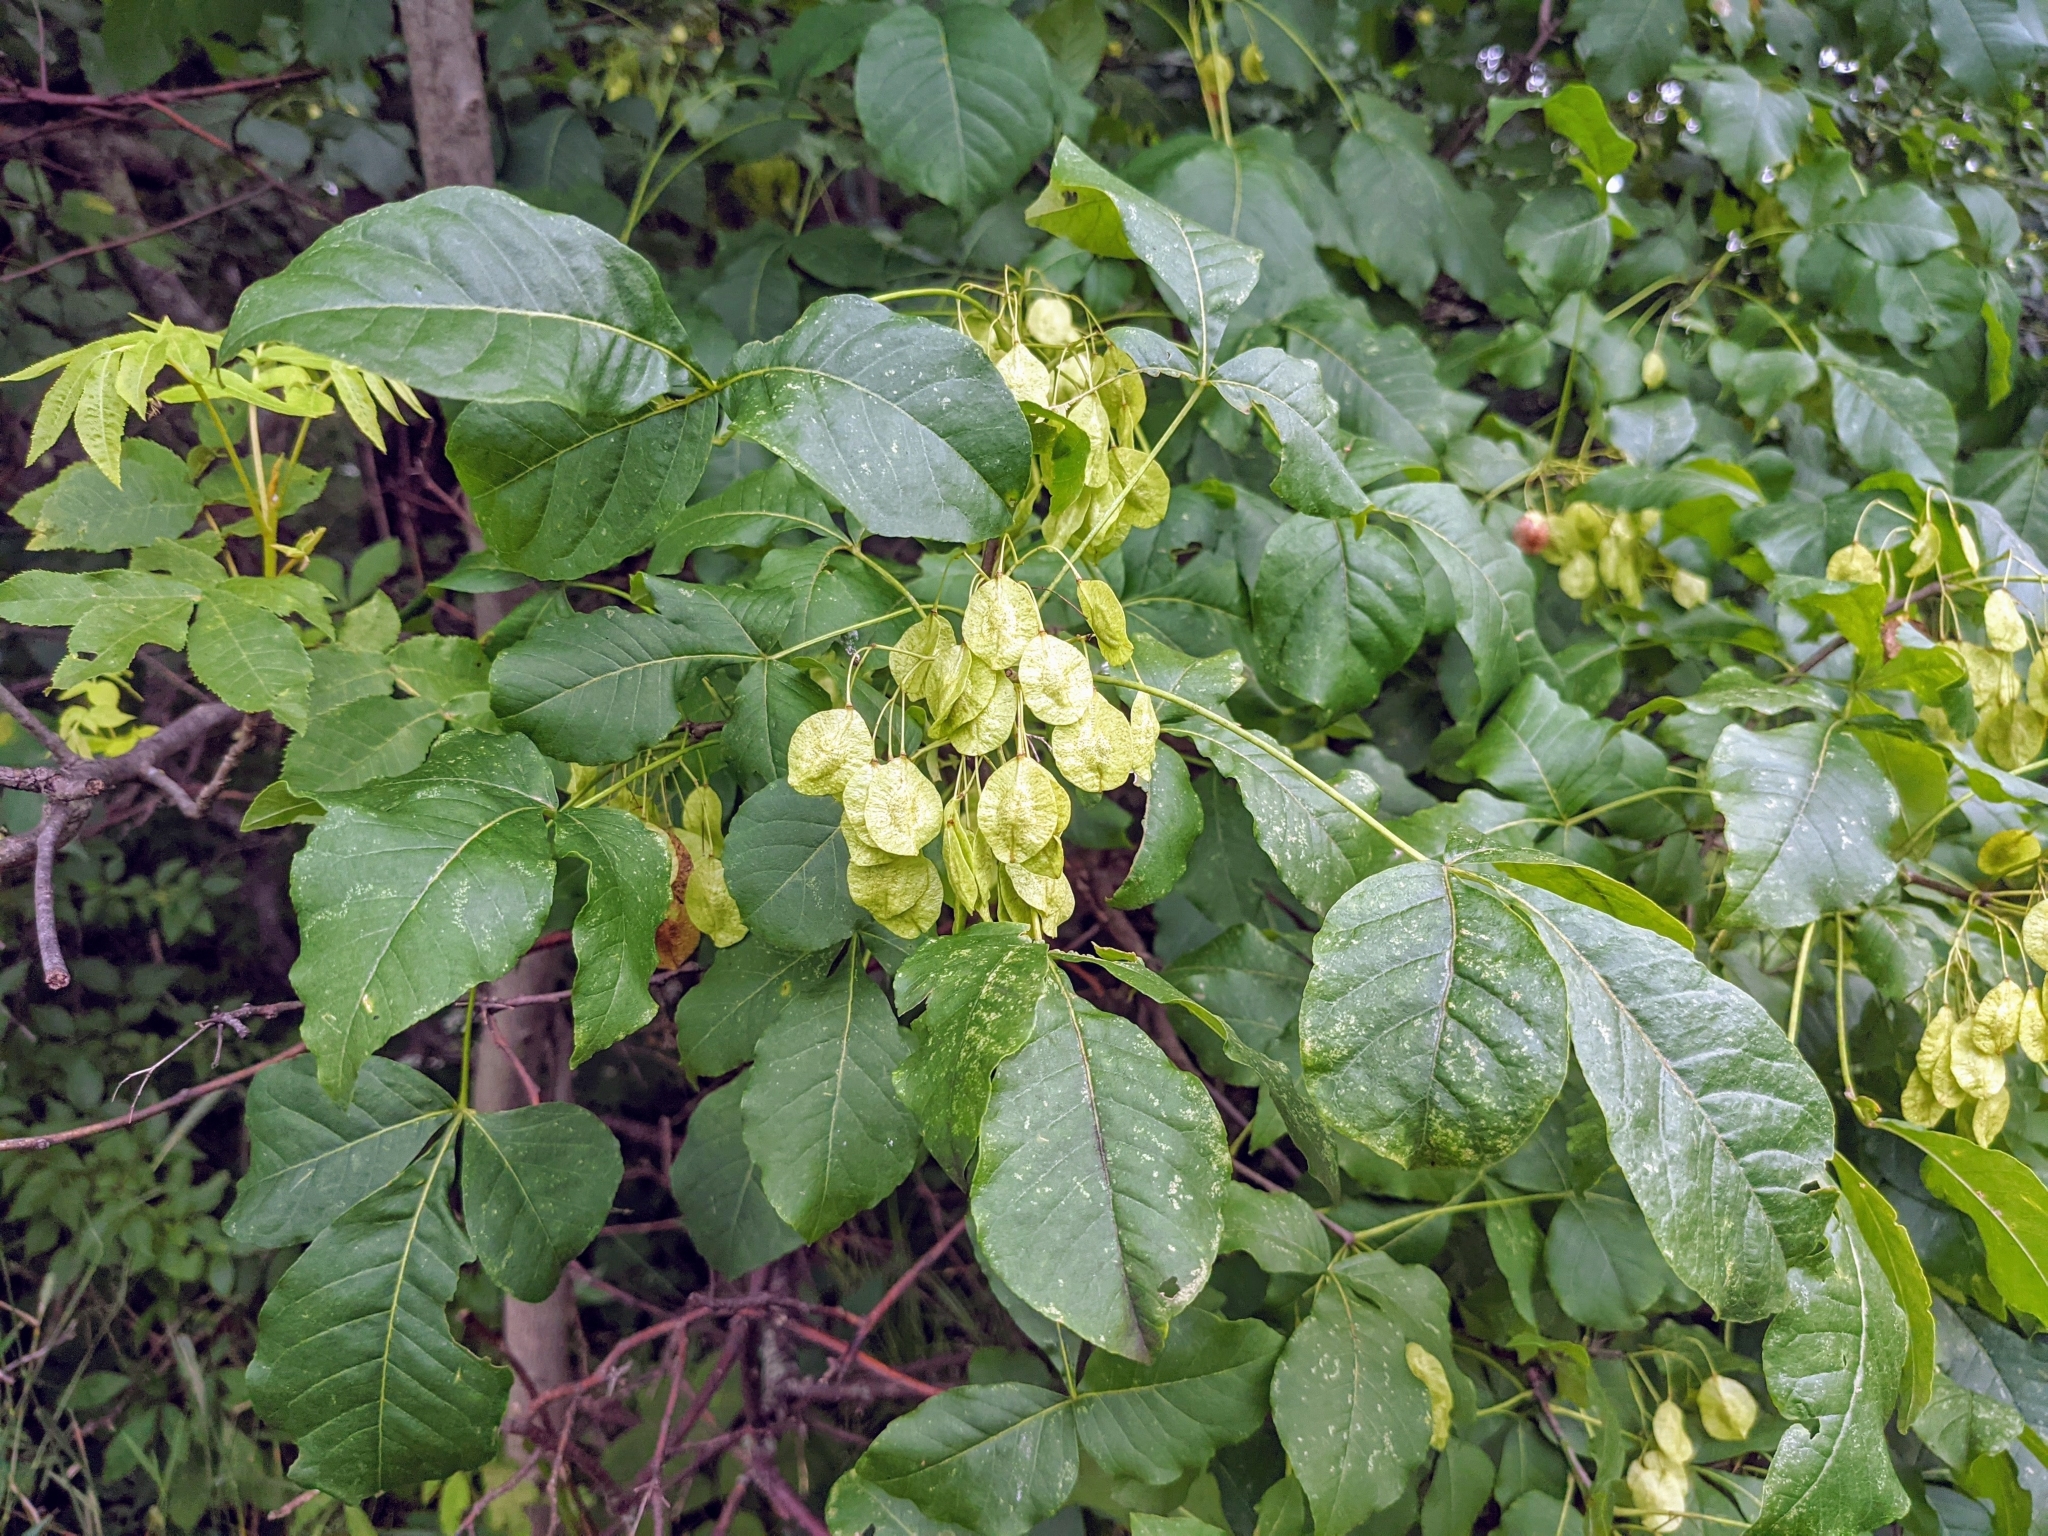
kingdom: Plantae
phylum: Tracheophyta
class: Magnoliopsida
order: Sapindales
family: Rutaceae
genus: Ptelea
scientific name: Ptelea trifoliata
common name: Common hop-tree
